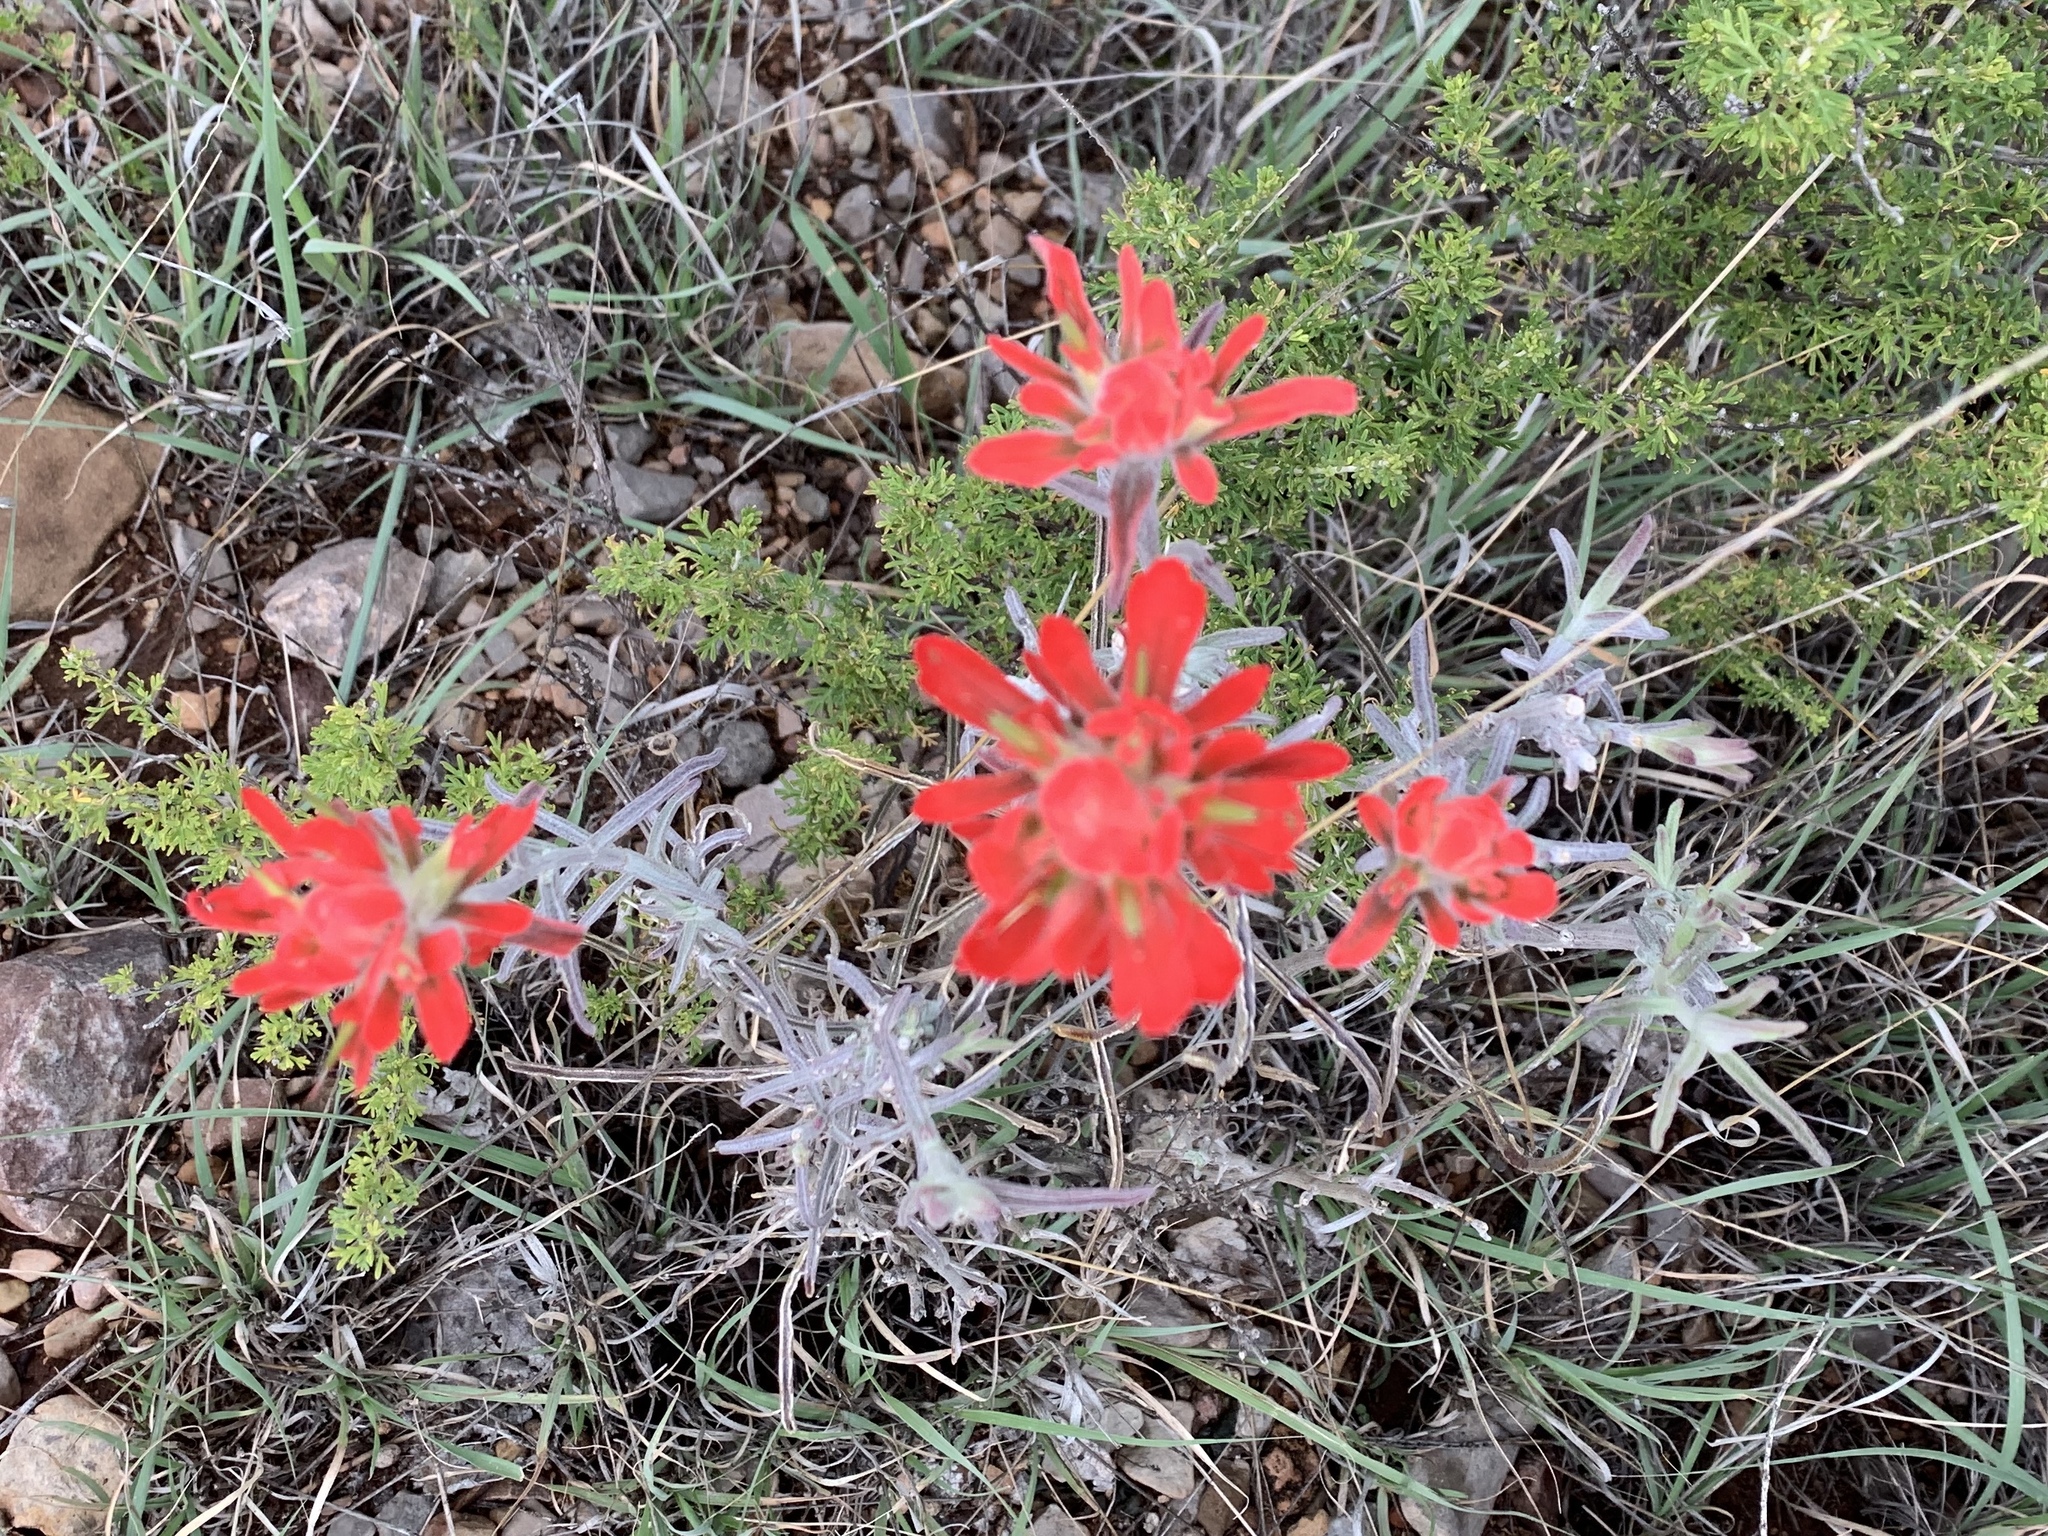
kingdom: Plantae
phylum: Tracheophyta
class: Magnoliopsida
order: Lamiales
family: Orobanchaceae
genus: Castilleja
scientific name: Castilleja lanata
